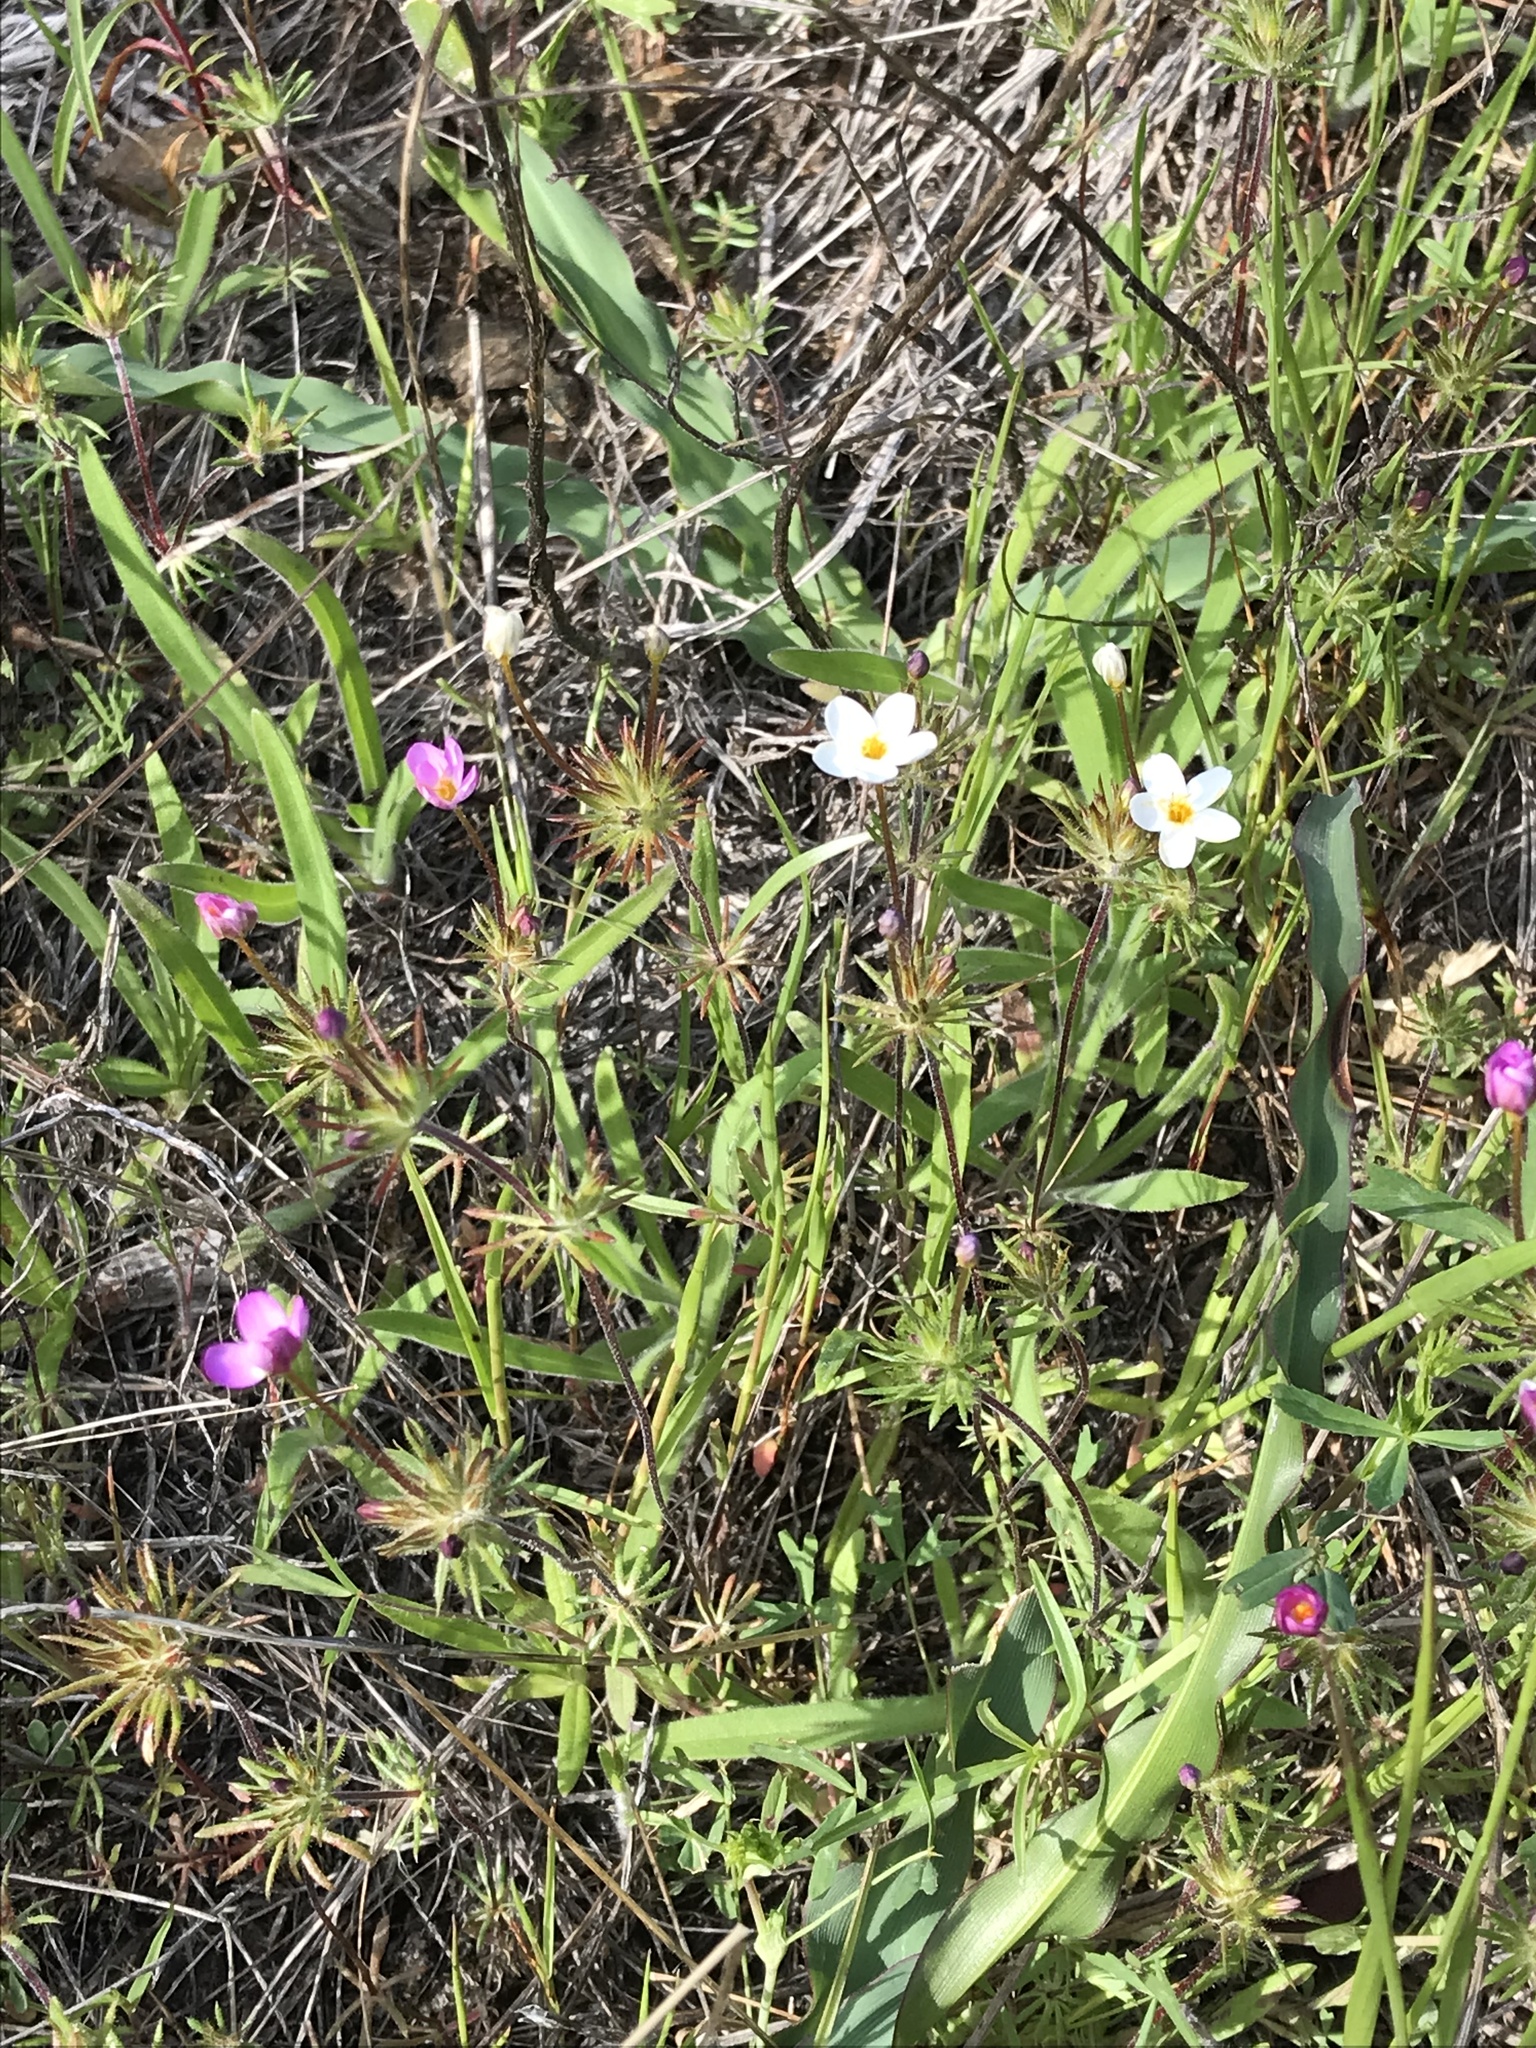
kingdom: Plantae
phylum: Tracheophyta
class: Magnoliopsida
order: Ericales
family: Polemoniaceae
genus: Leptosiphon
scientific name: Leptosiphon parviflorus
